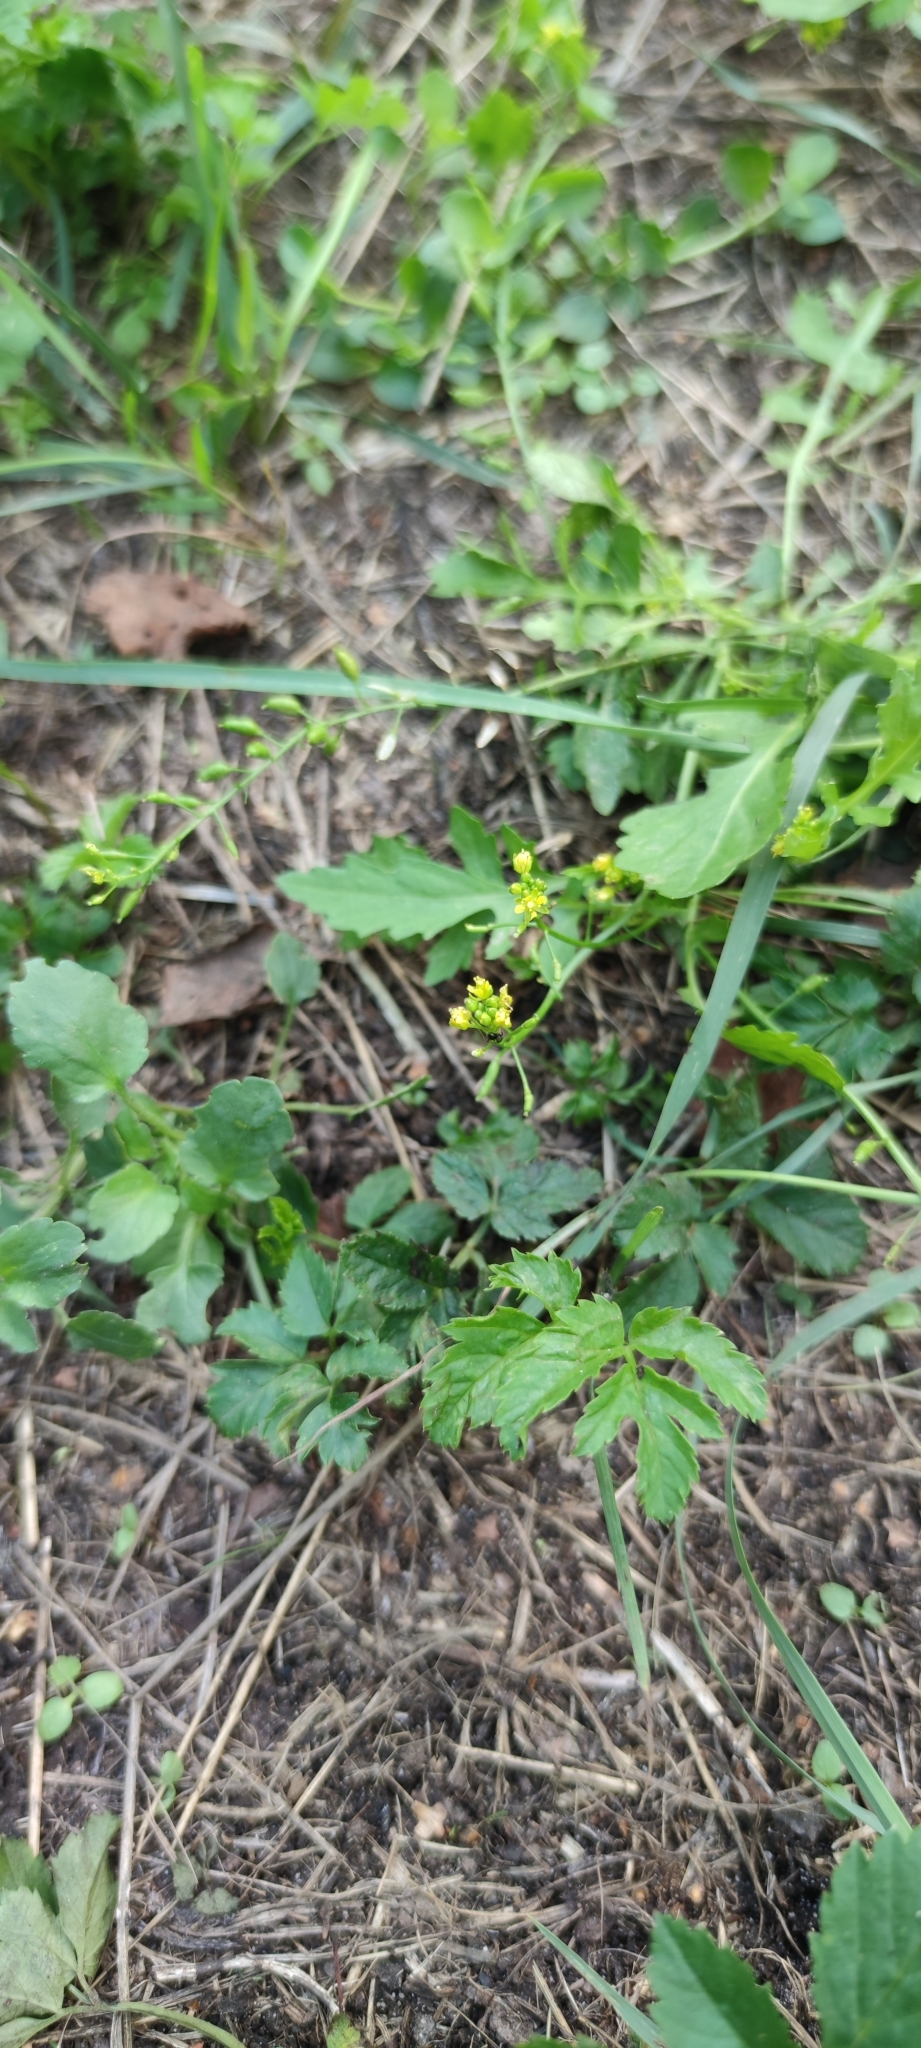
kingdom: Plantae
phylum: Tracheophyta
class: Magnoliopsida
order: Brassicales
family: Brassicaceae
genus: Rorippa
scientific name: Rorippa palustris
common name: Marsh yellow-cress
